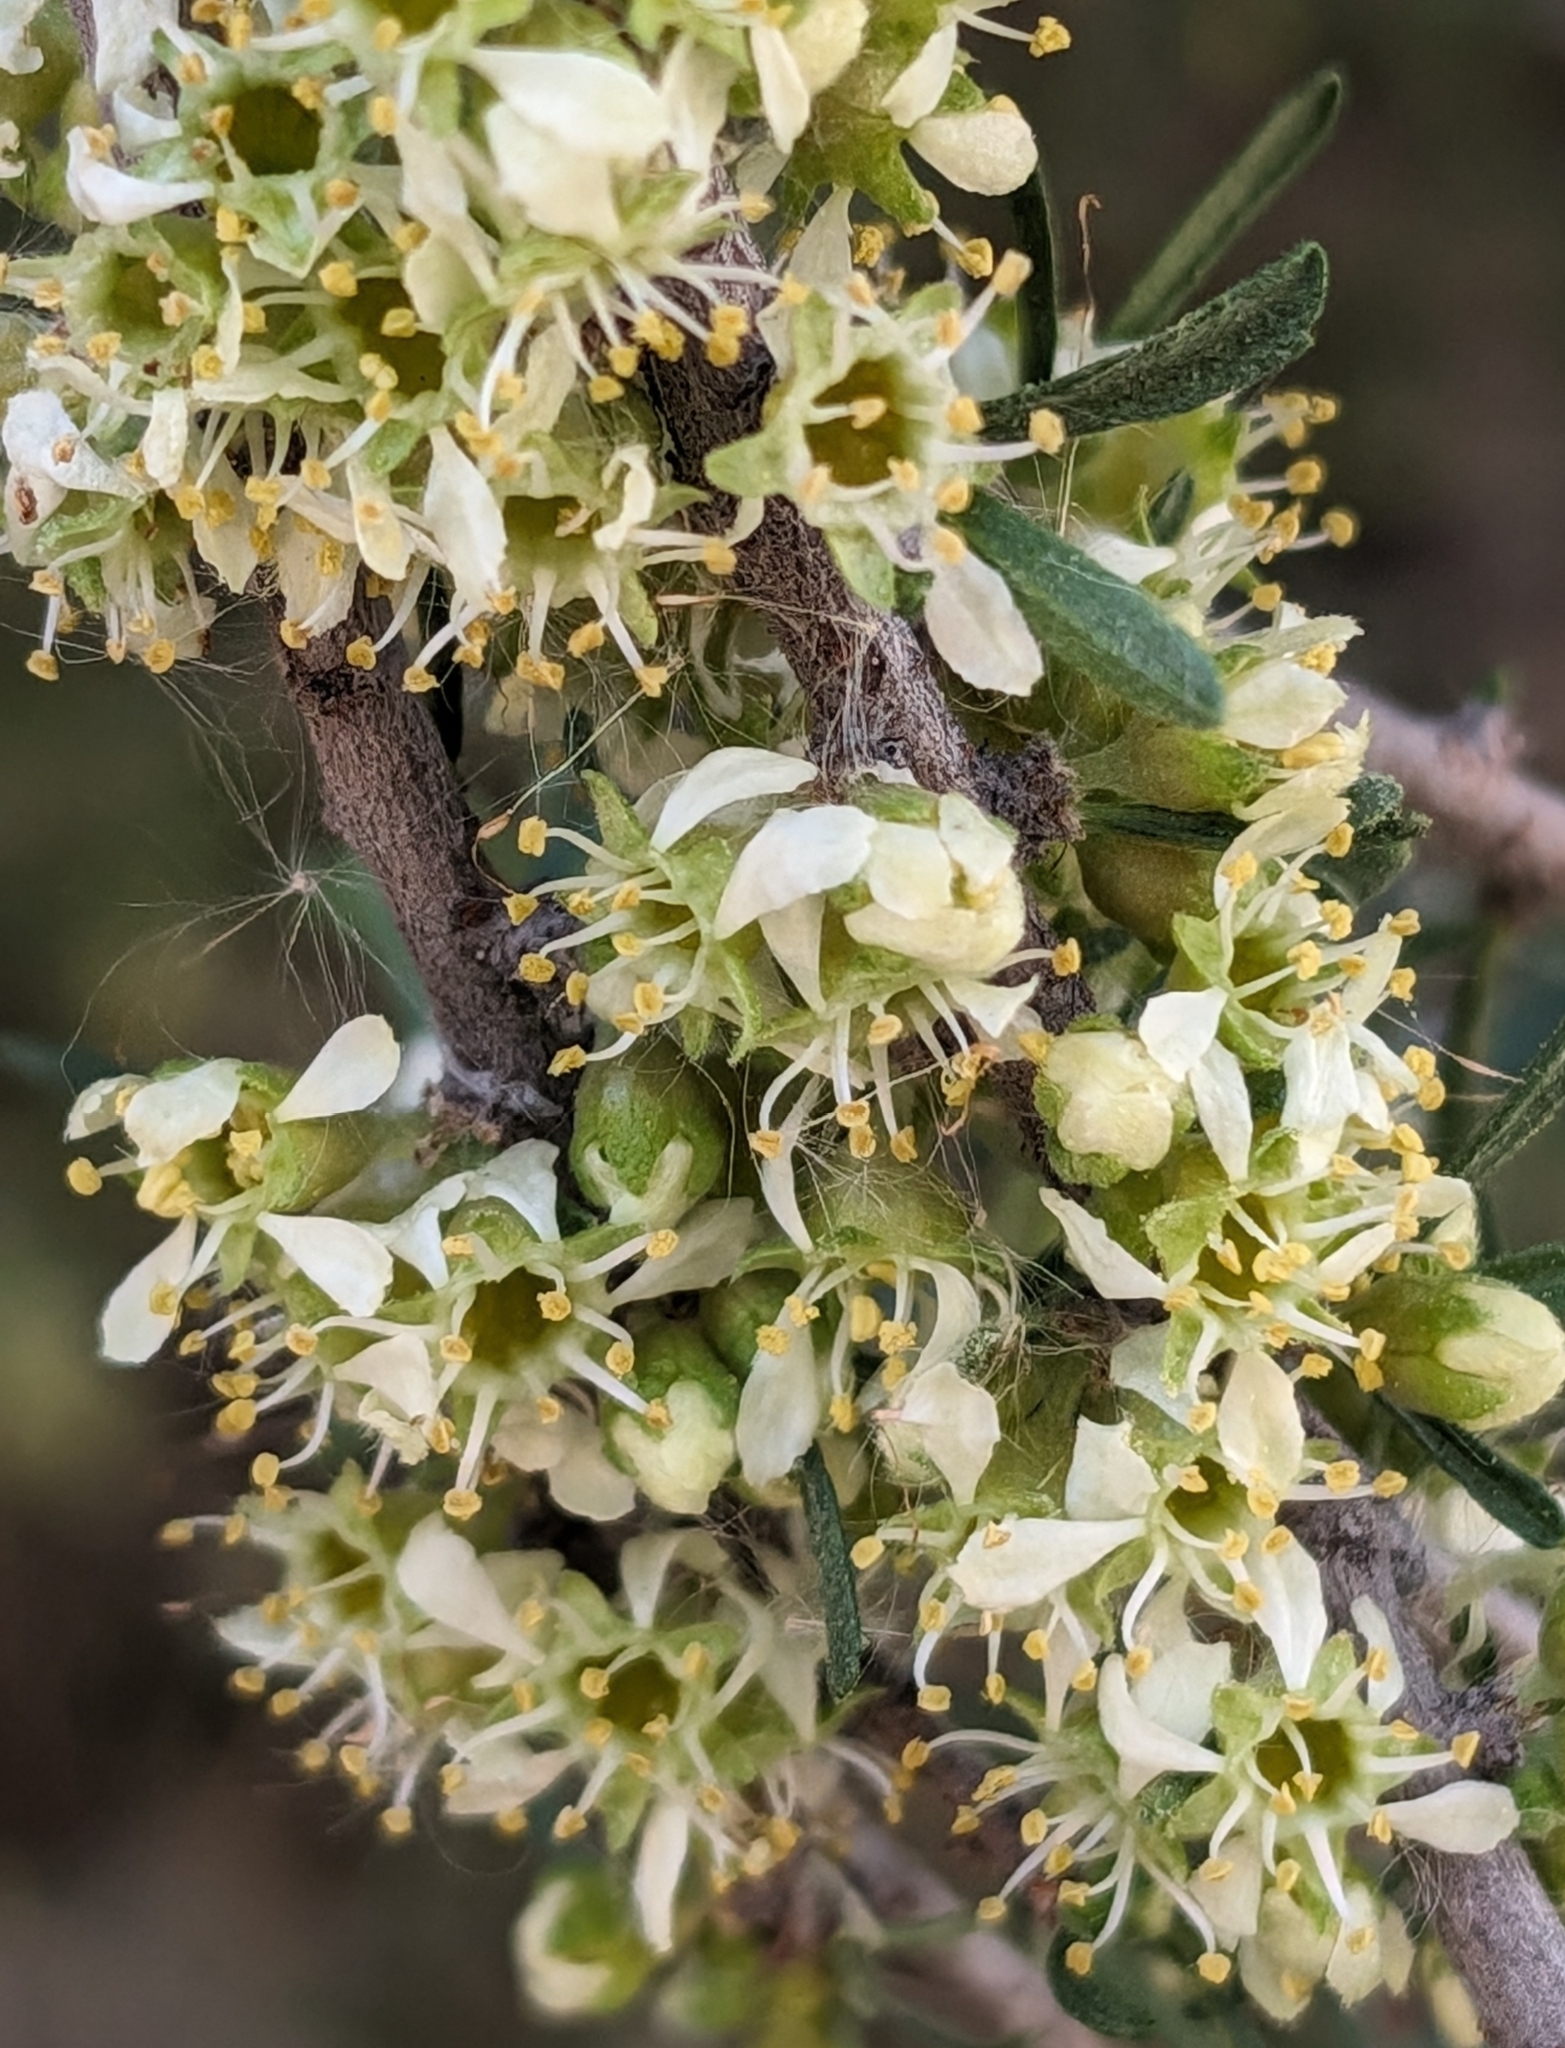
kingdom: Plantae
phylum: Tracheophyta
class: Magnoliopsida
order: Rosales
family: Rosaceae
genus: Prunus
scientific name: Prunus fasciculata
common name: Desert almond
